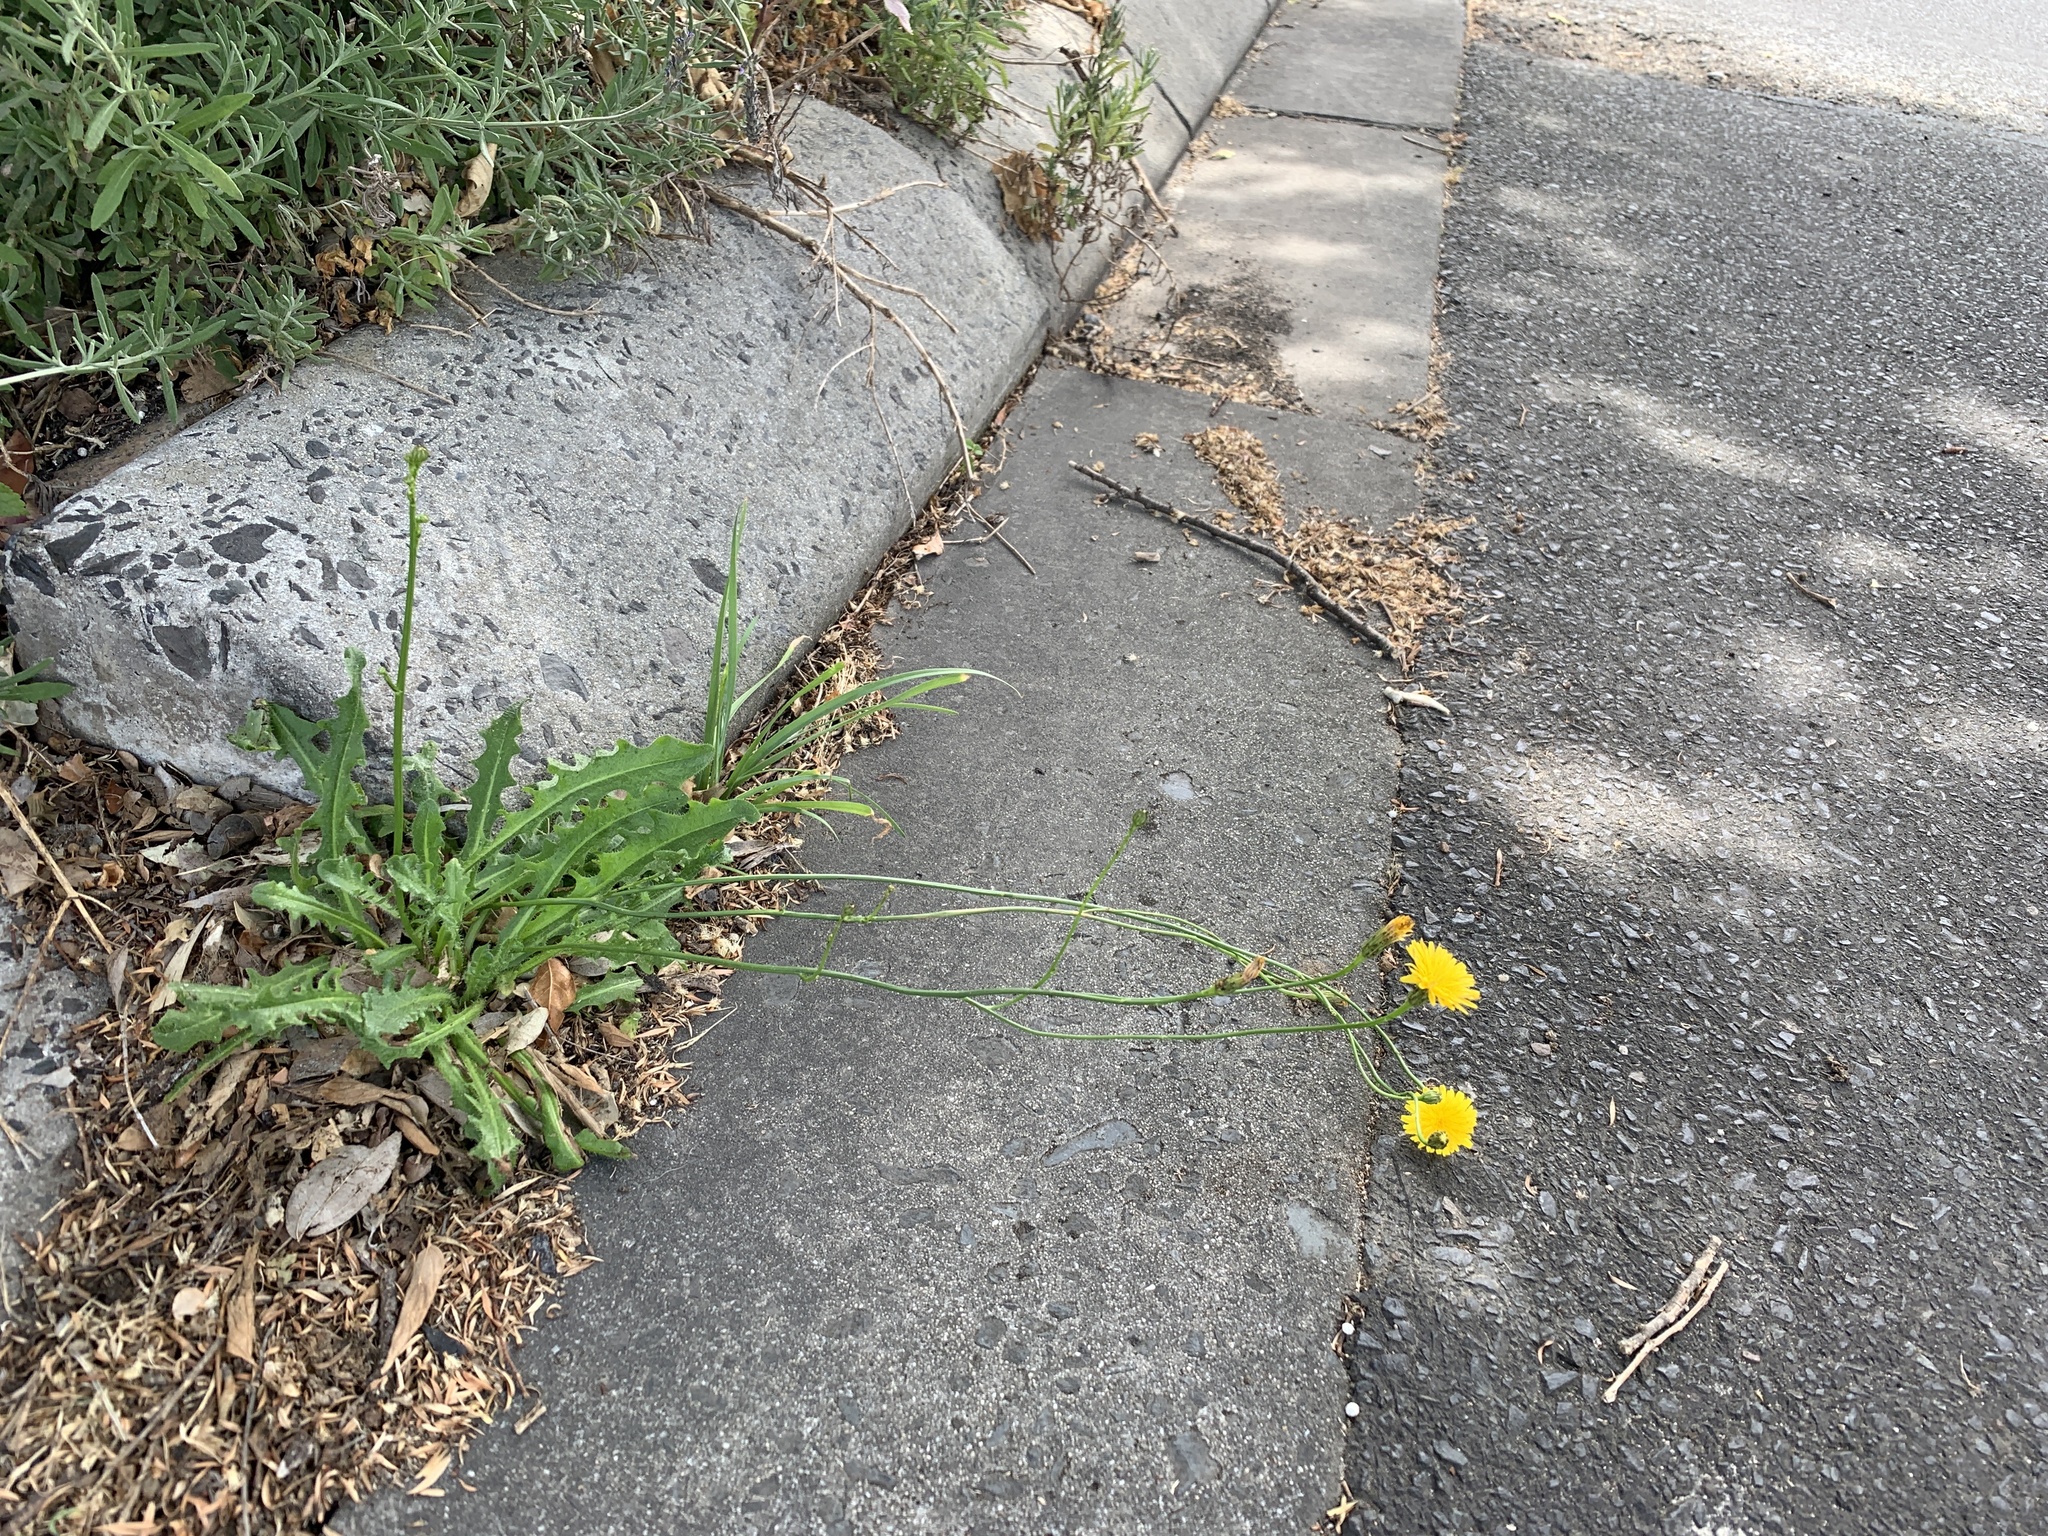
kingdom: Plantae
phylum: Tracheophyta
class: Magnoliopsida
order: Asterales
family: Asteraceae
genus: Hypochaeris
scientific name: Hypochaeris radicata
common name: Flatweed
